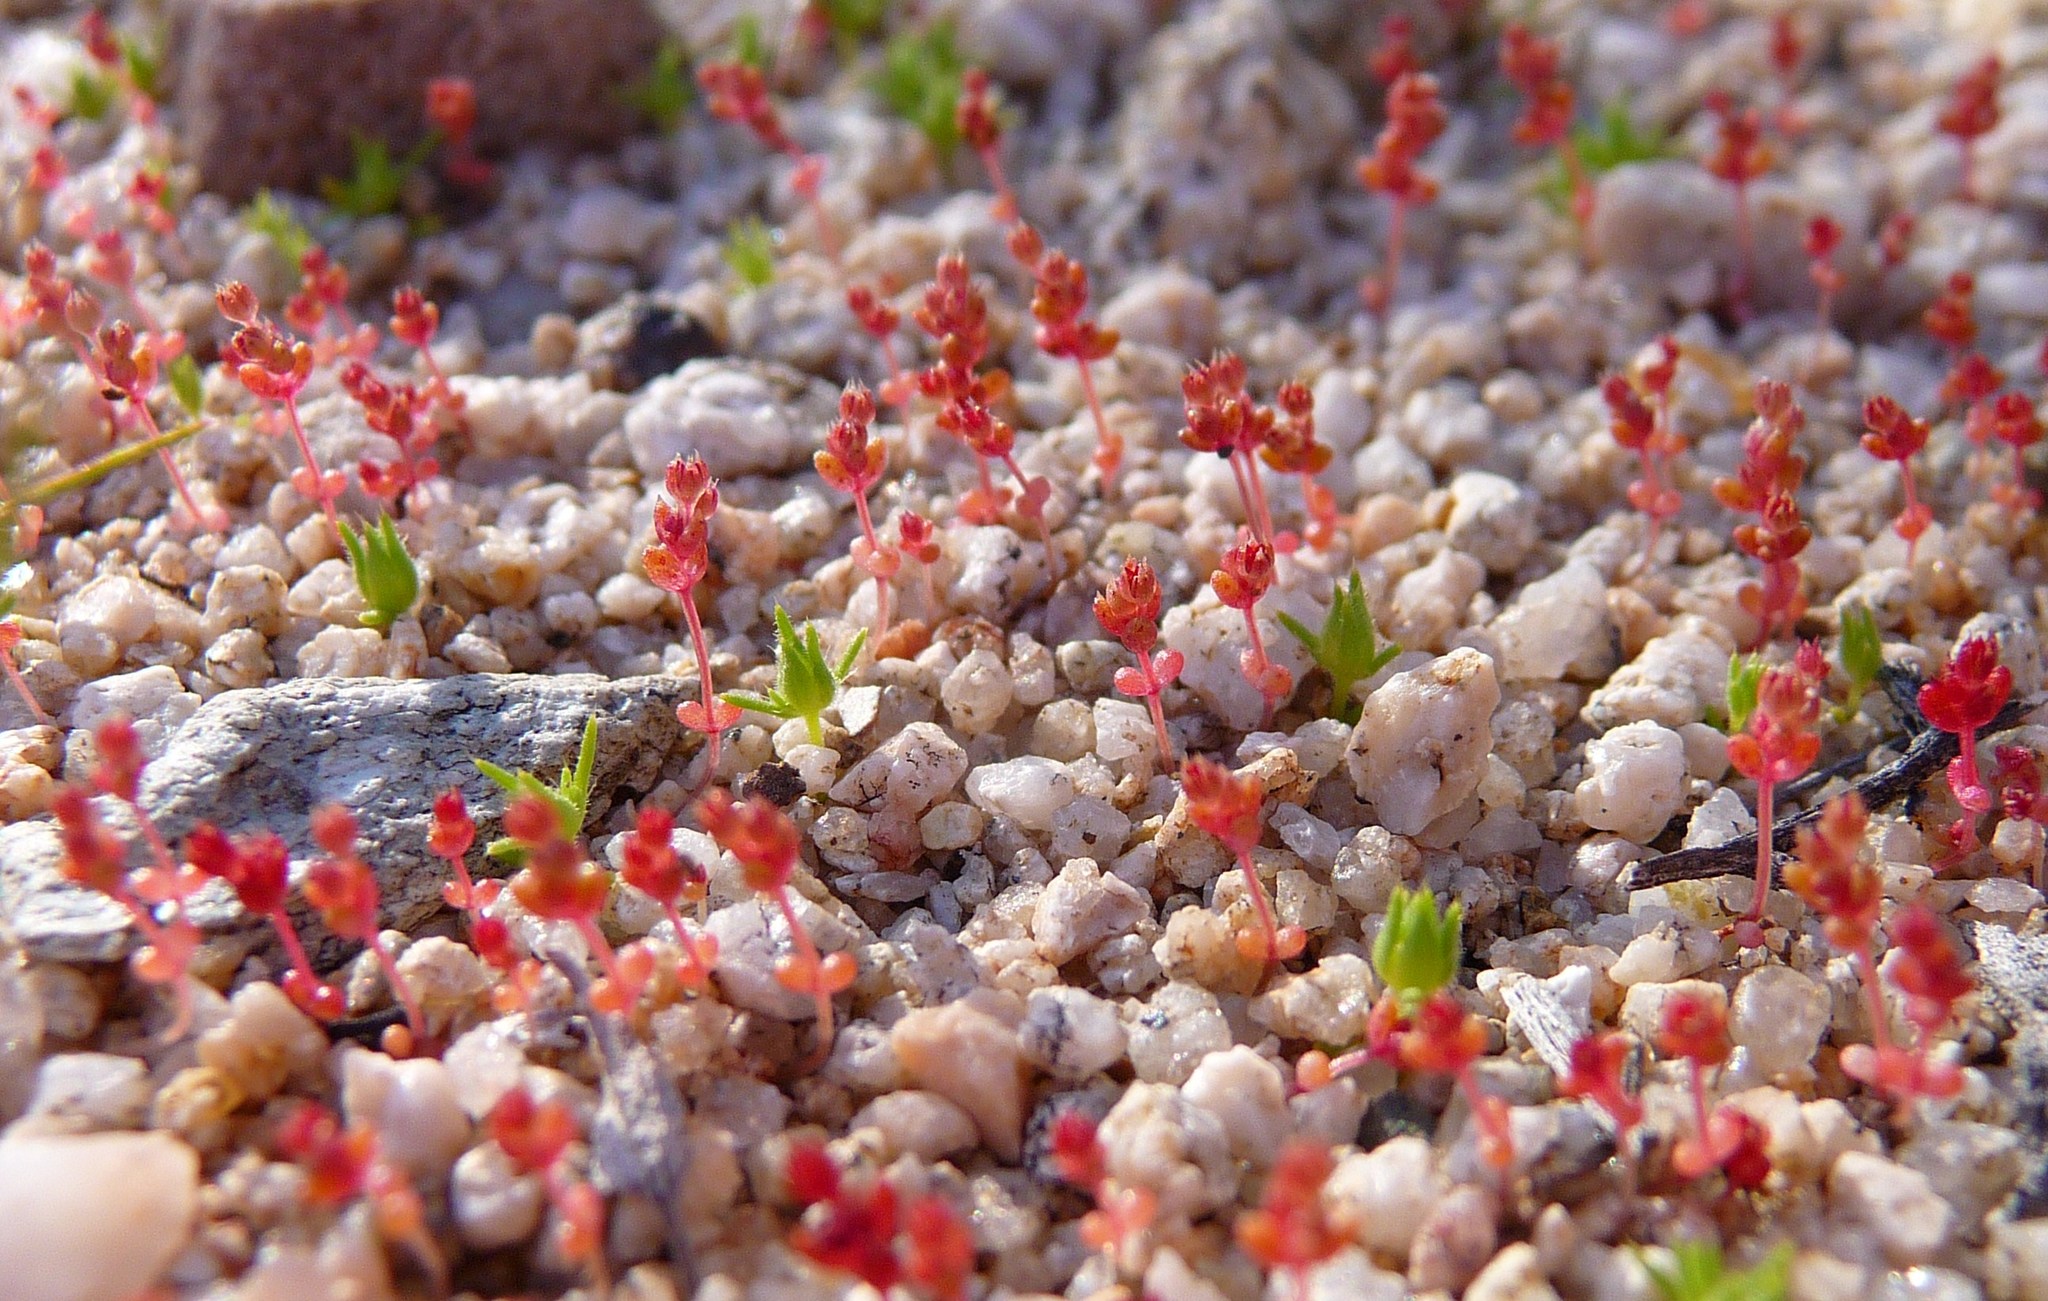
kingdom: Plantae
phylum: Tracheophyta
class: Magnoliopsida
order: Saxifragales
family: Crassulaceae
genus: Crassula
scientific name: Crassula connata
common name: Erect pygmyweed
